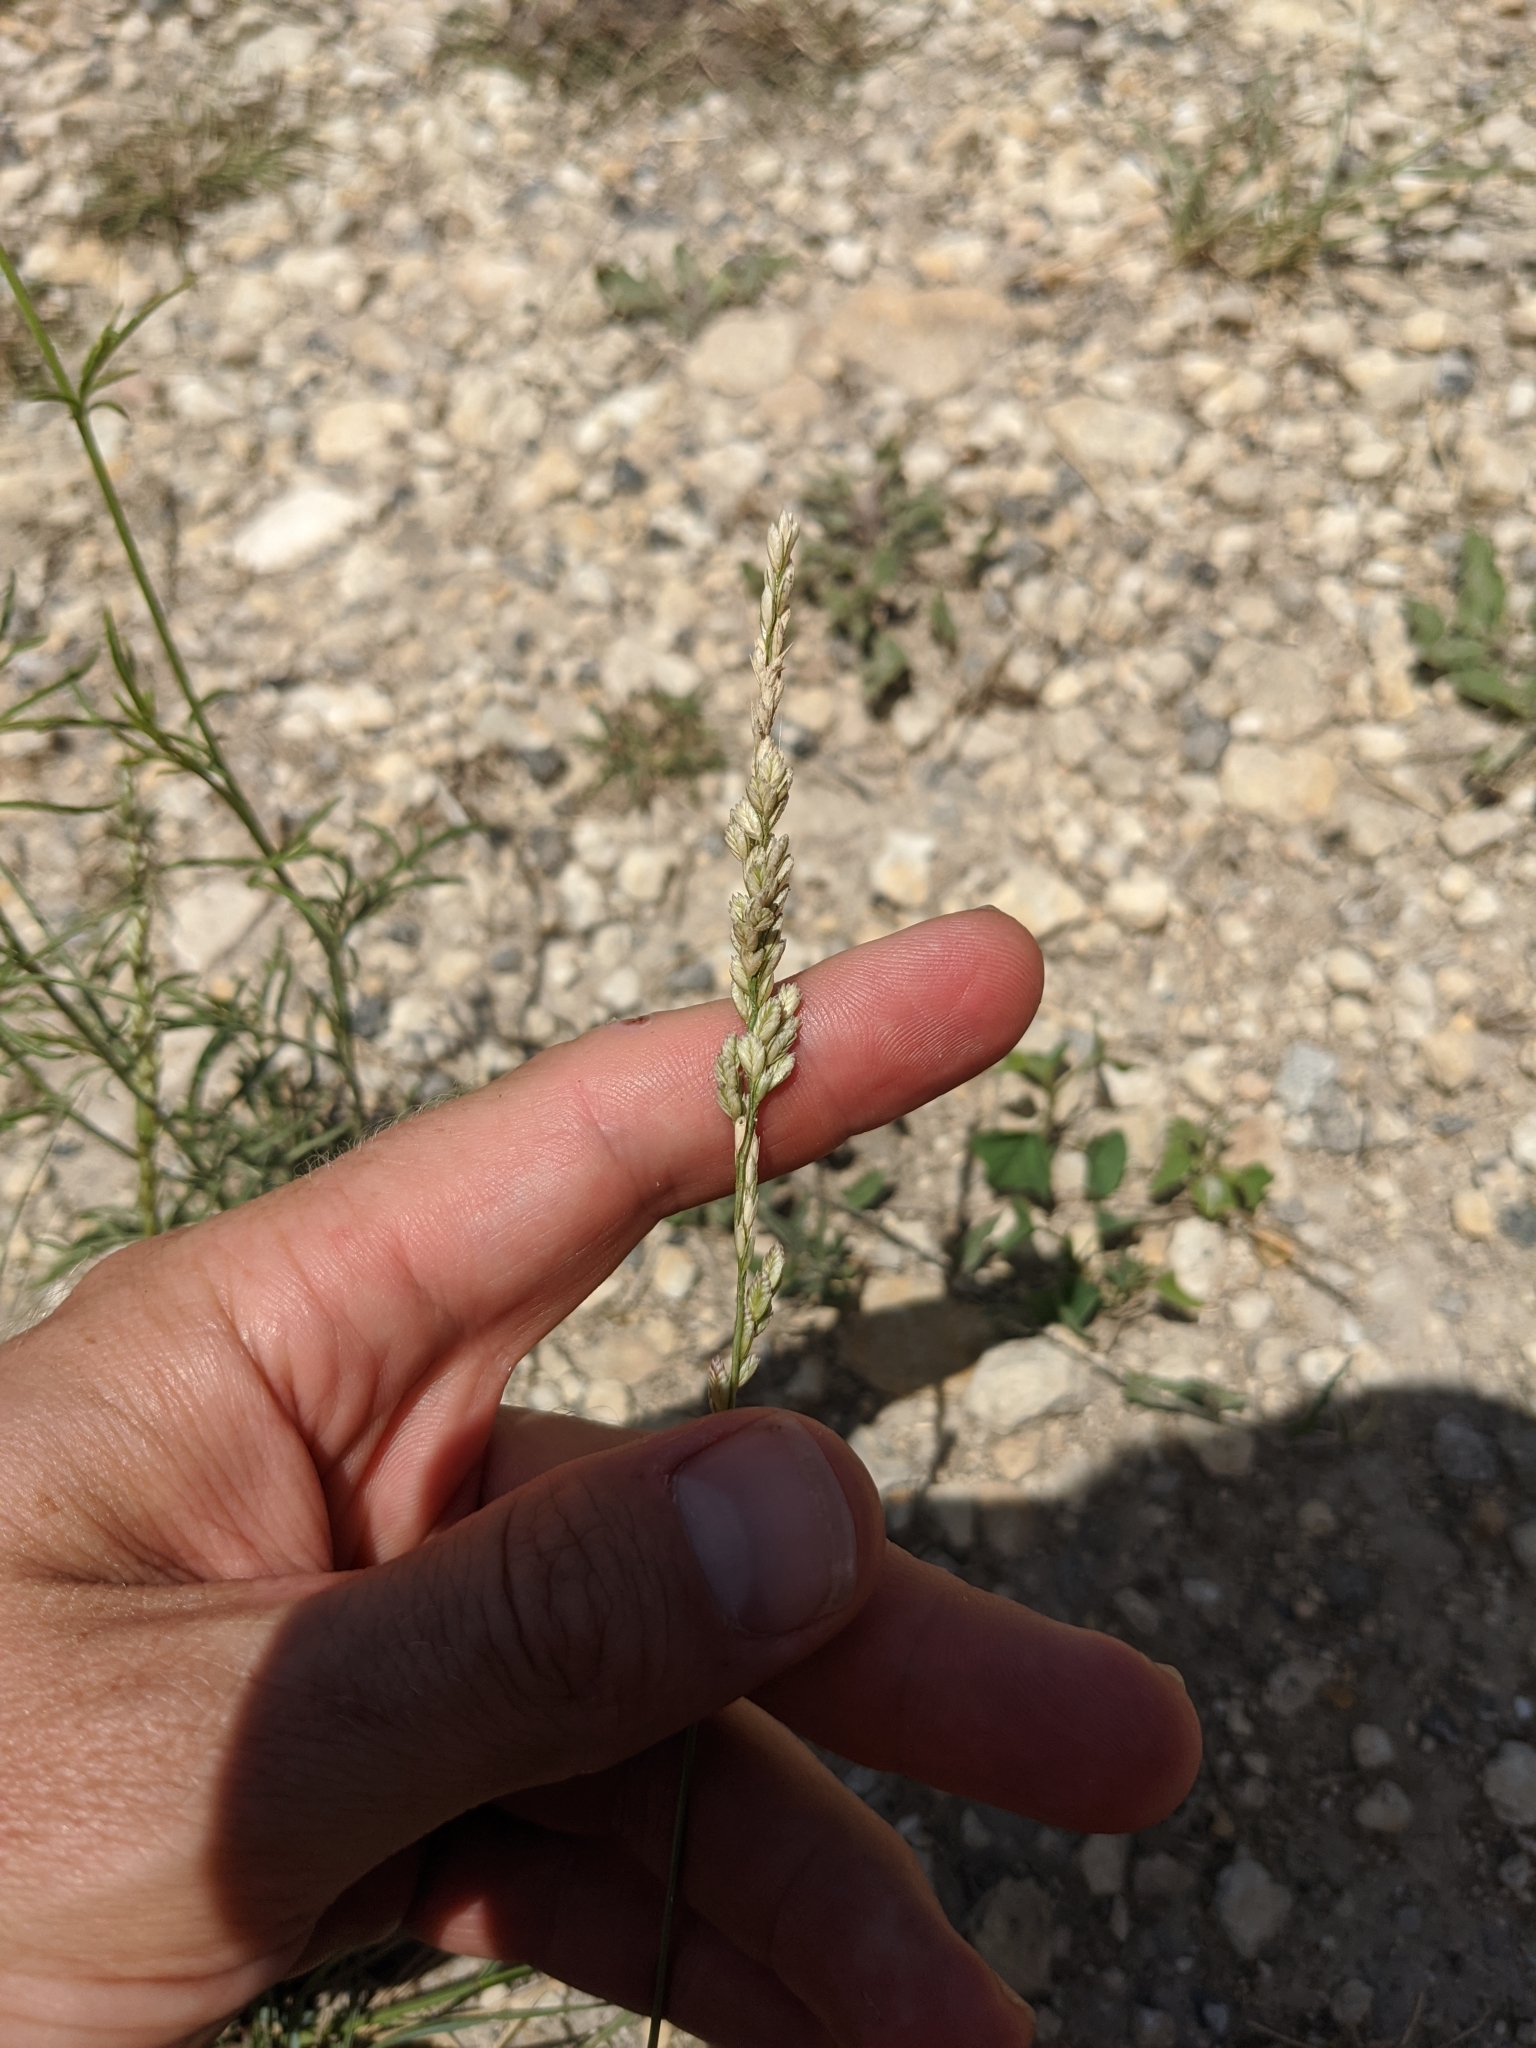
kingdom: Plantae
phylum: Tracheophyta
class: Liliopsida
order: Poales
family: Poaceae
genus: Tridens
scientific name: Tridens albescens
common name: White tridens
